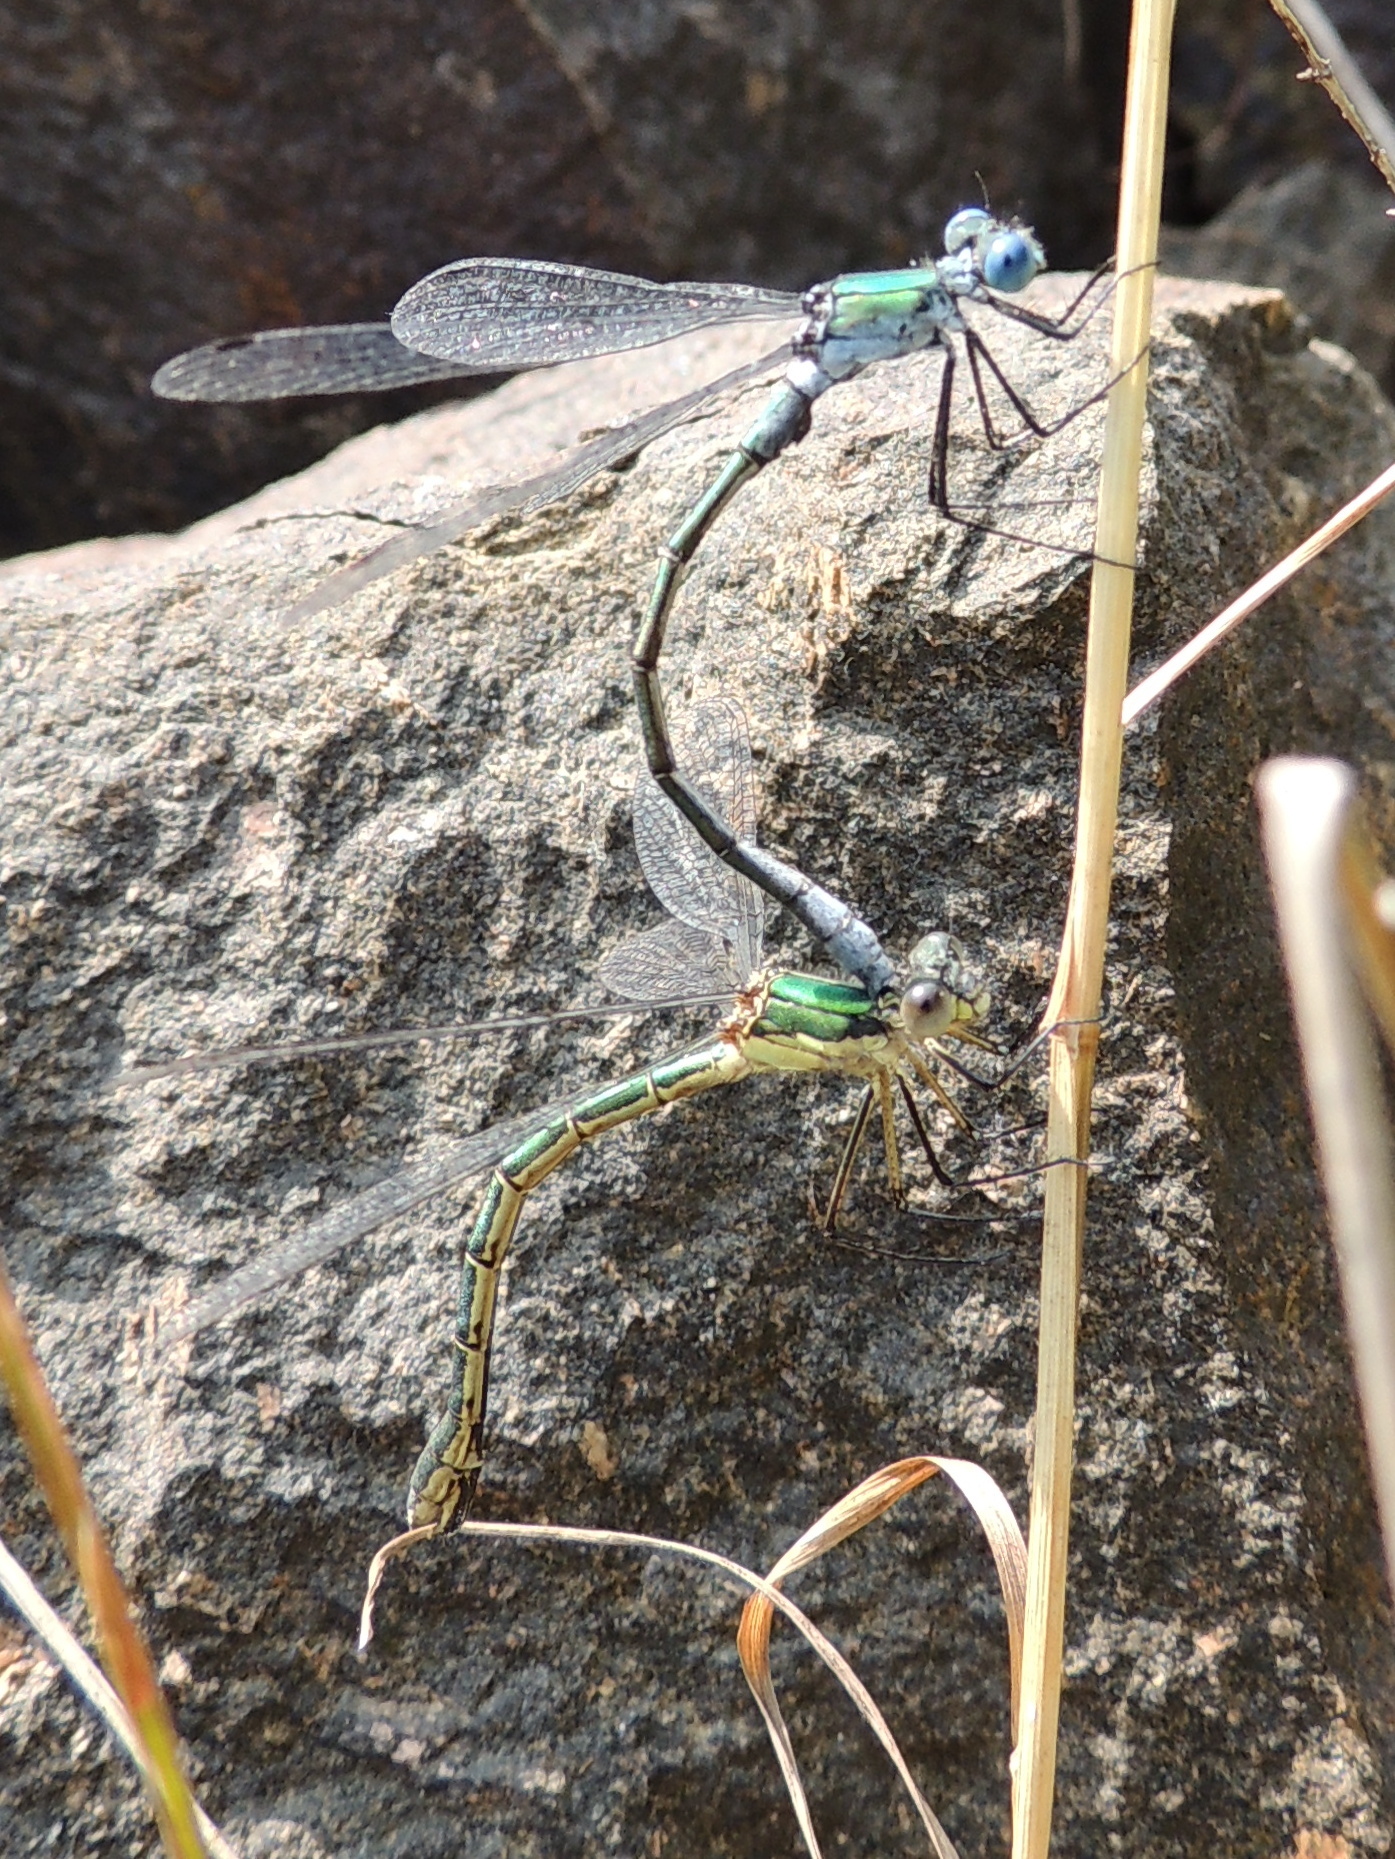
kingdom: Animalia
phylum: Arthropoda
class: Insecta
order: Odonata
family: Lestidae
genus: Lestes
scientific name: Lestes dryas
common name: Scarce emerald damselfly
